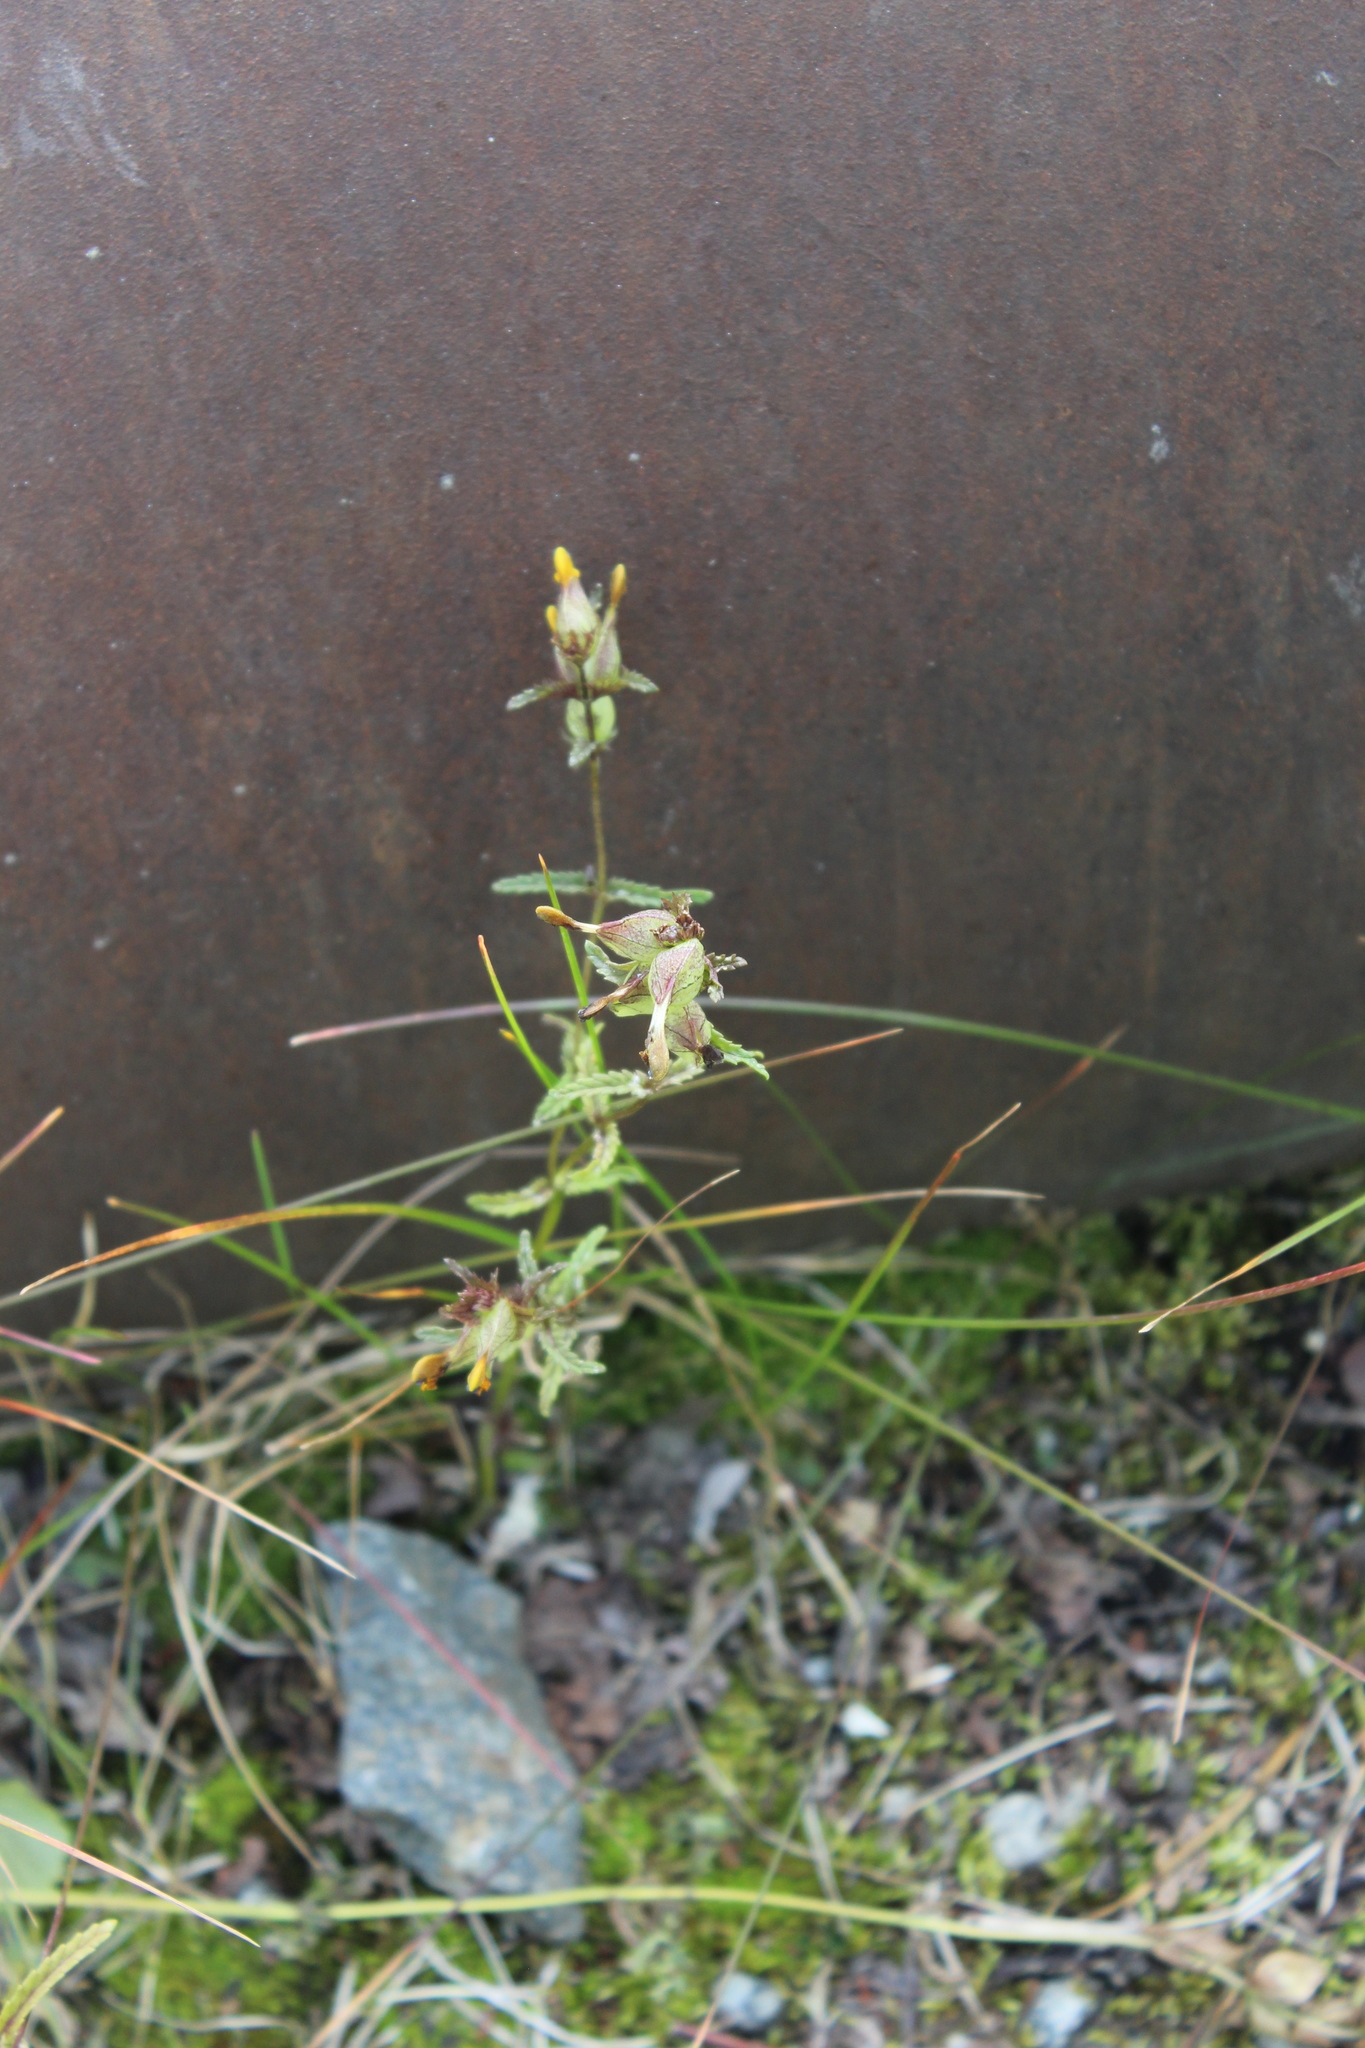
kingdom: Plantae
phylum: Tracheophyta
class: Magnoliopsida
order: Lamiales
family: Orobanchaceae
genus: Rhinanthus
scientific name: Rhinanthus minor
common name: Yellow-rattle
